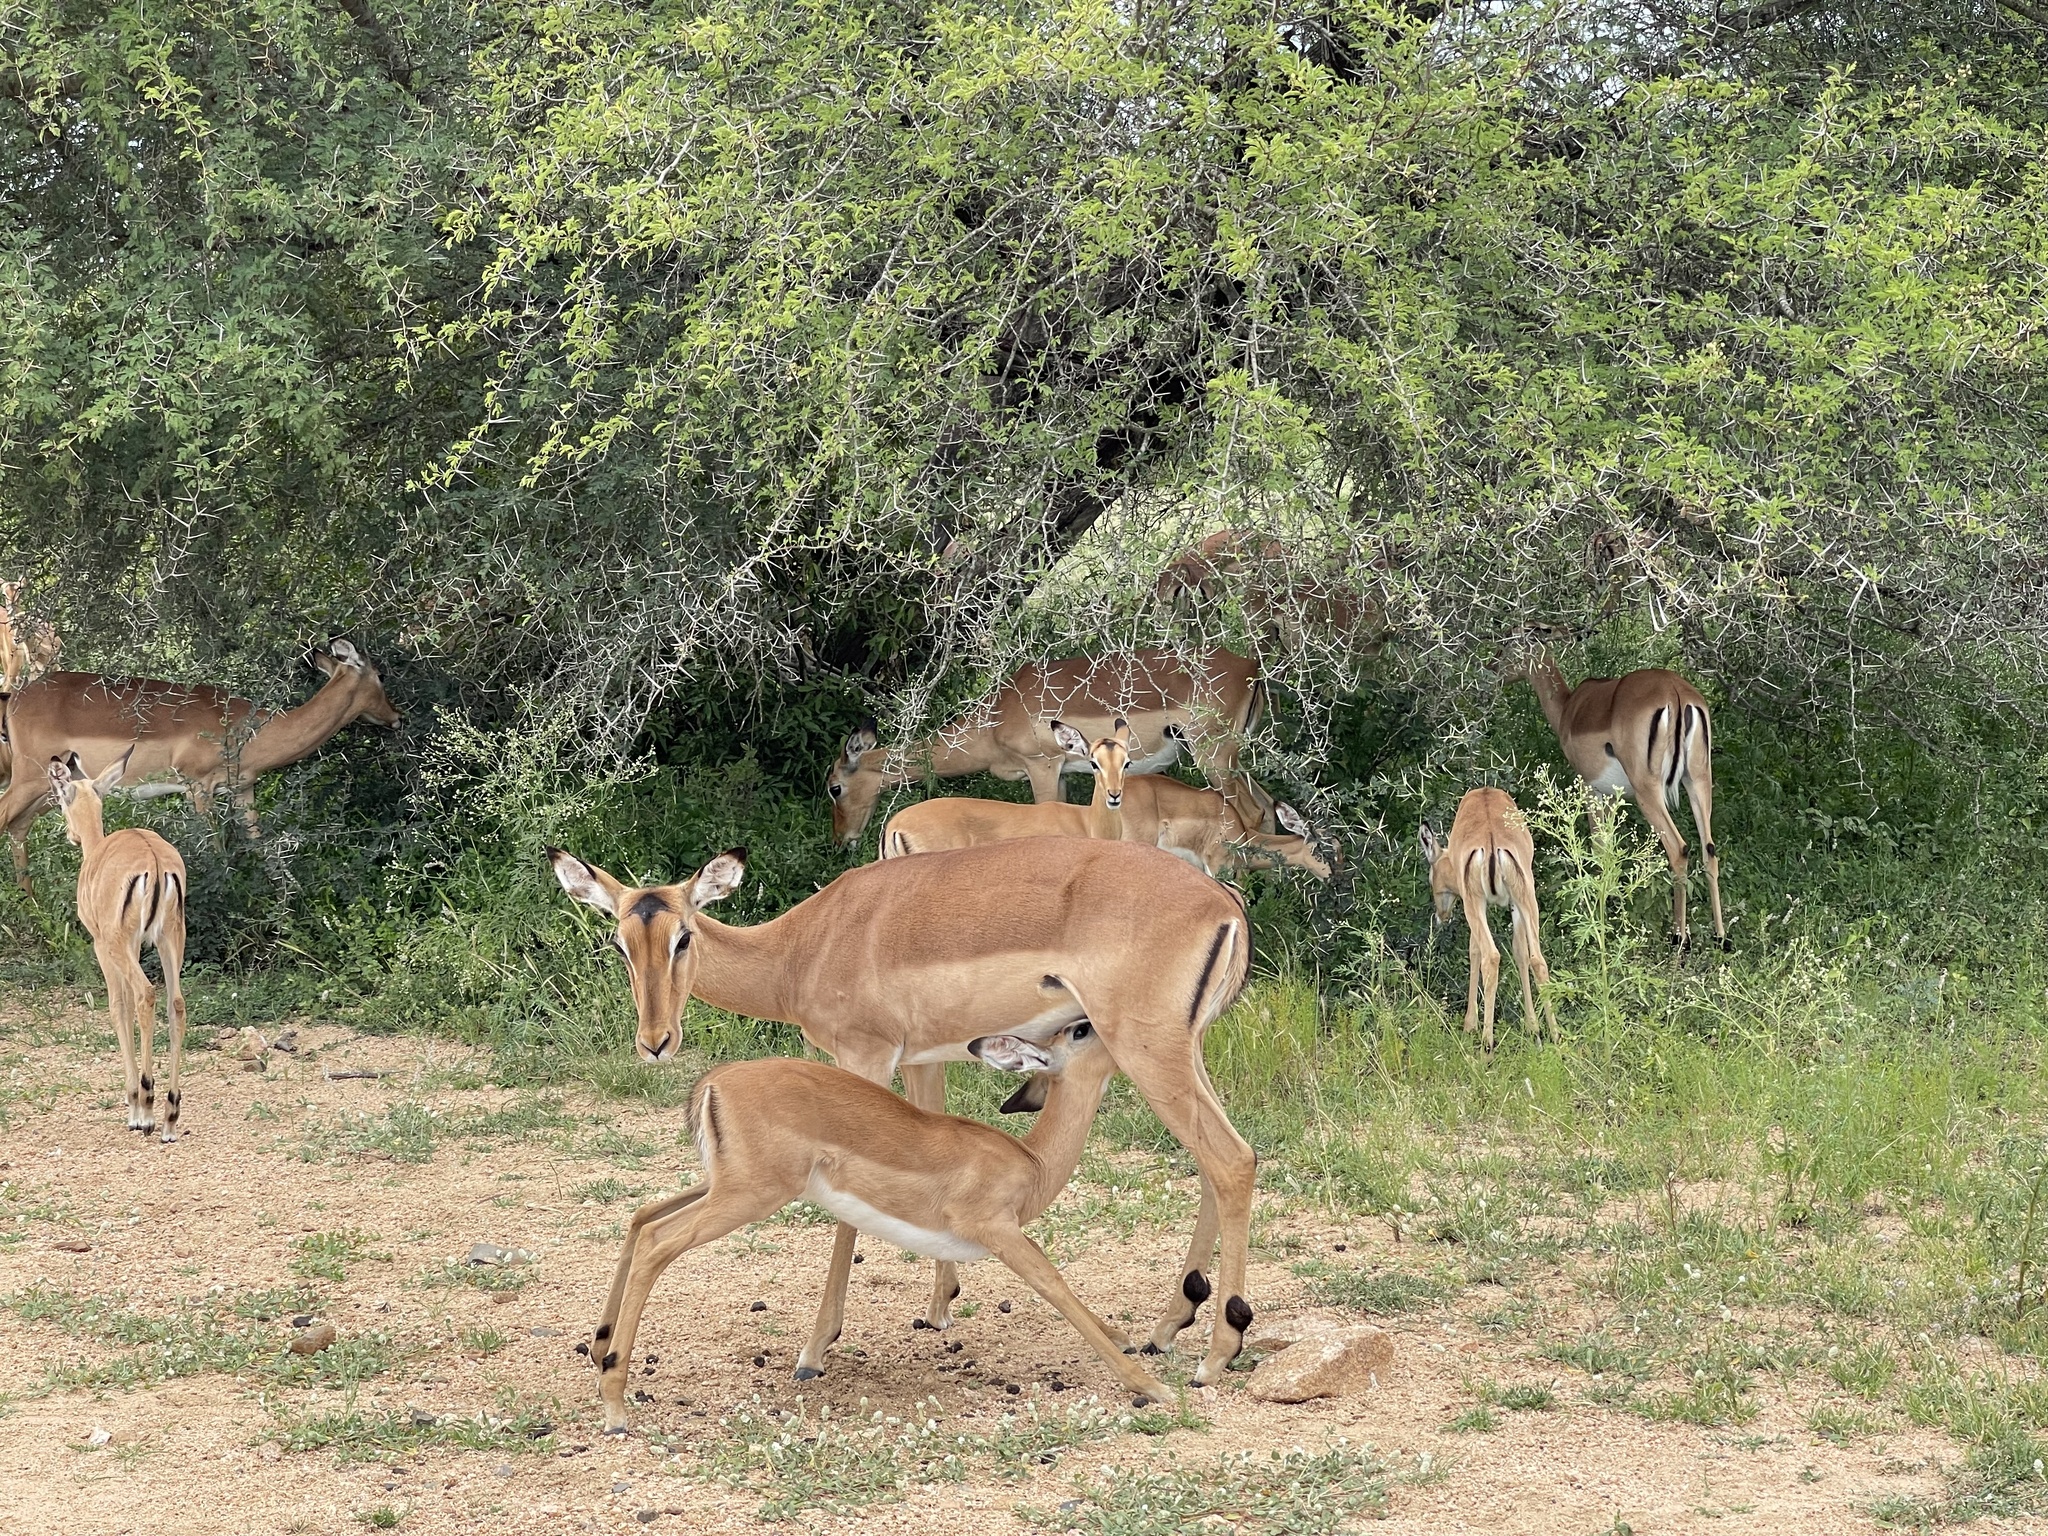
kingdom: Animalia
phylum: Chordata
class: Mammalia
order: Artiodactyla
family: Bovidae
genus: Aepyceros
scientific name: Aepyceros melampus
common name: Impala
